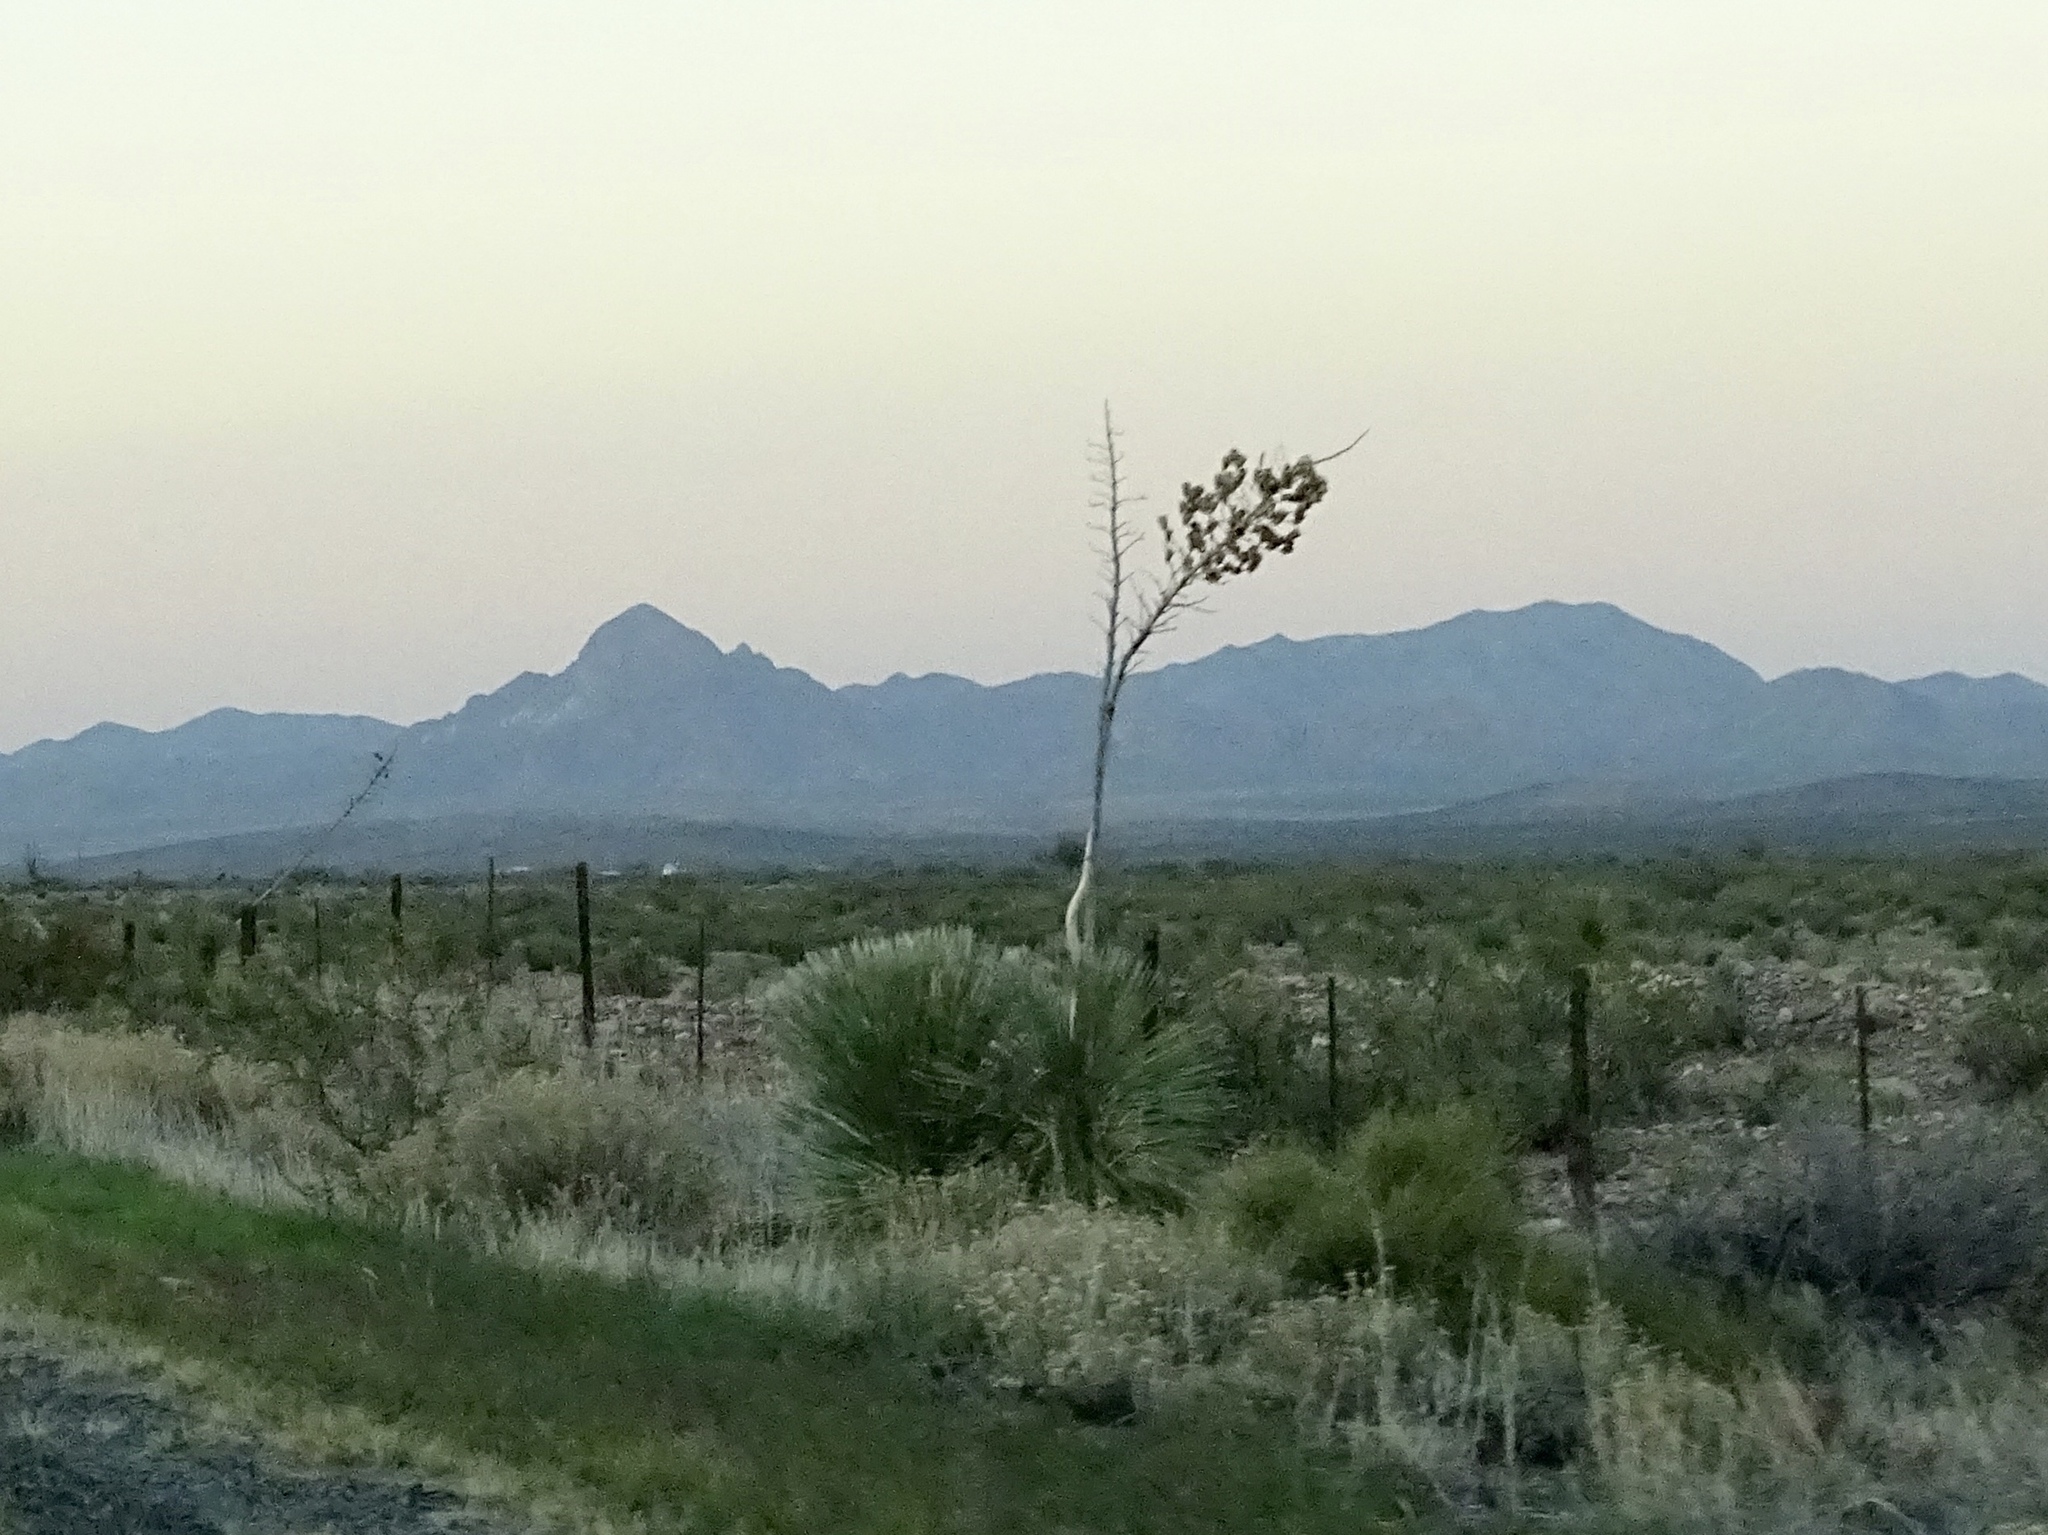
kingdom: Plantae
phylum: Tracheophyta
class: Liliopsida
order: Asparagales
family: Asparagaceae
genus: Yucca
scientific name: Yucca elata
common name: Palmella
